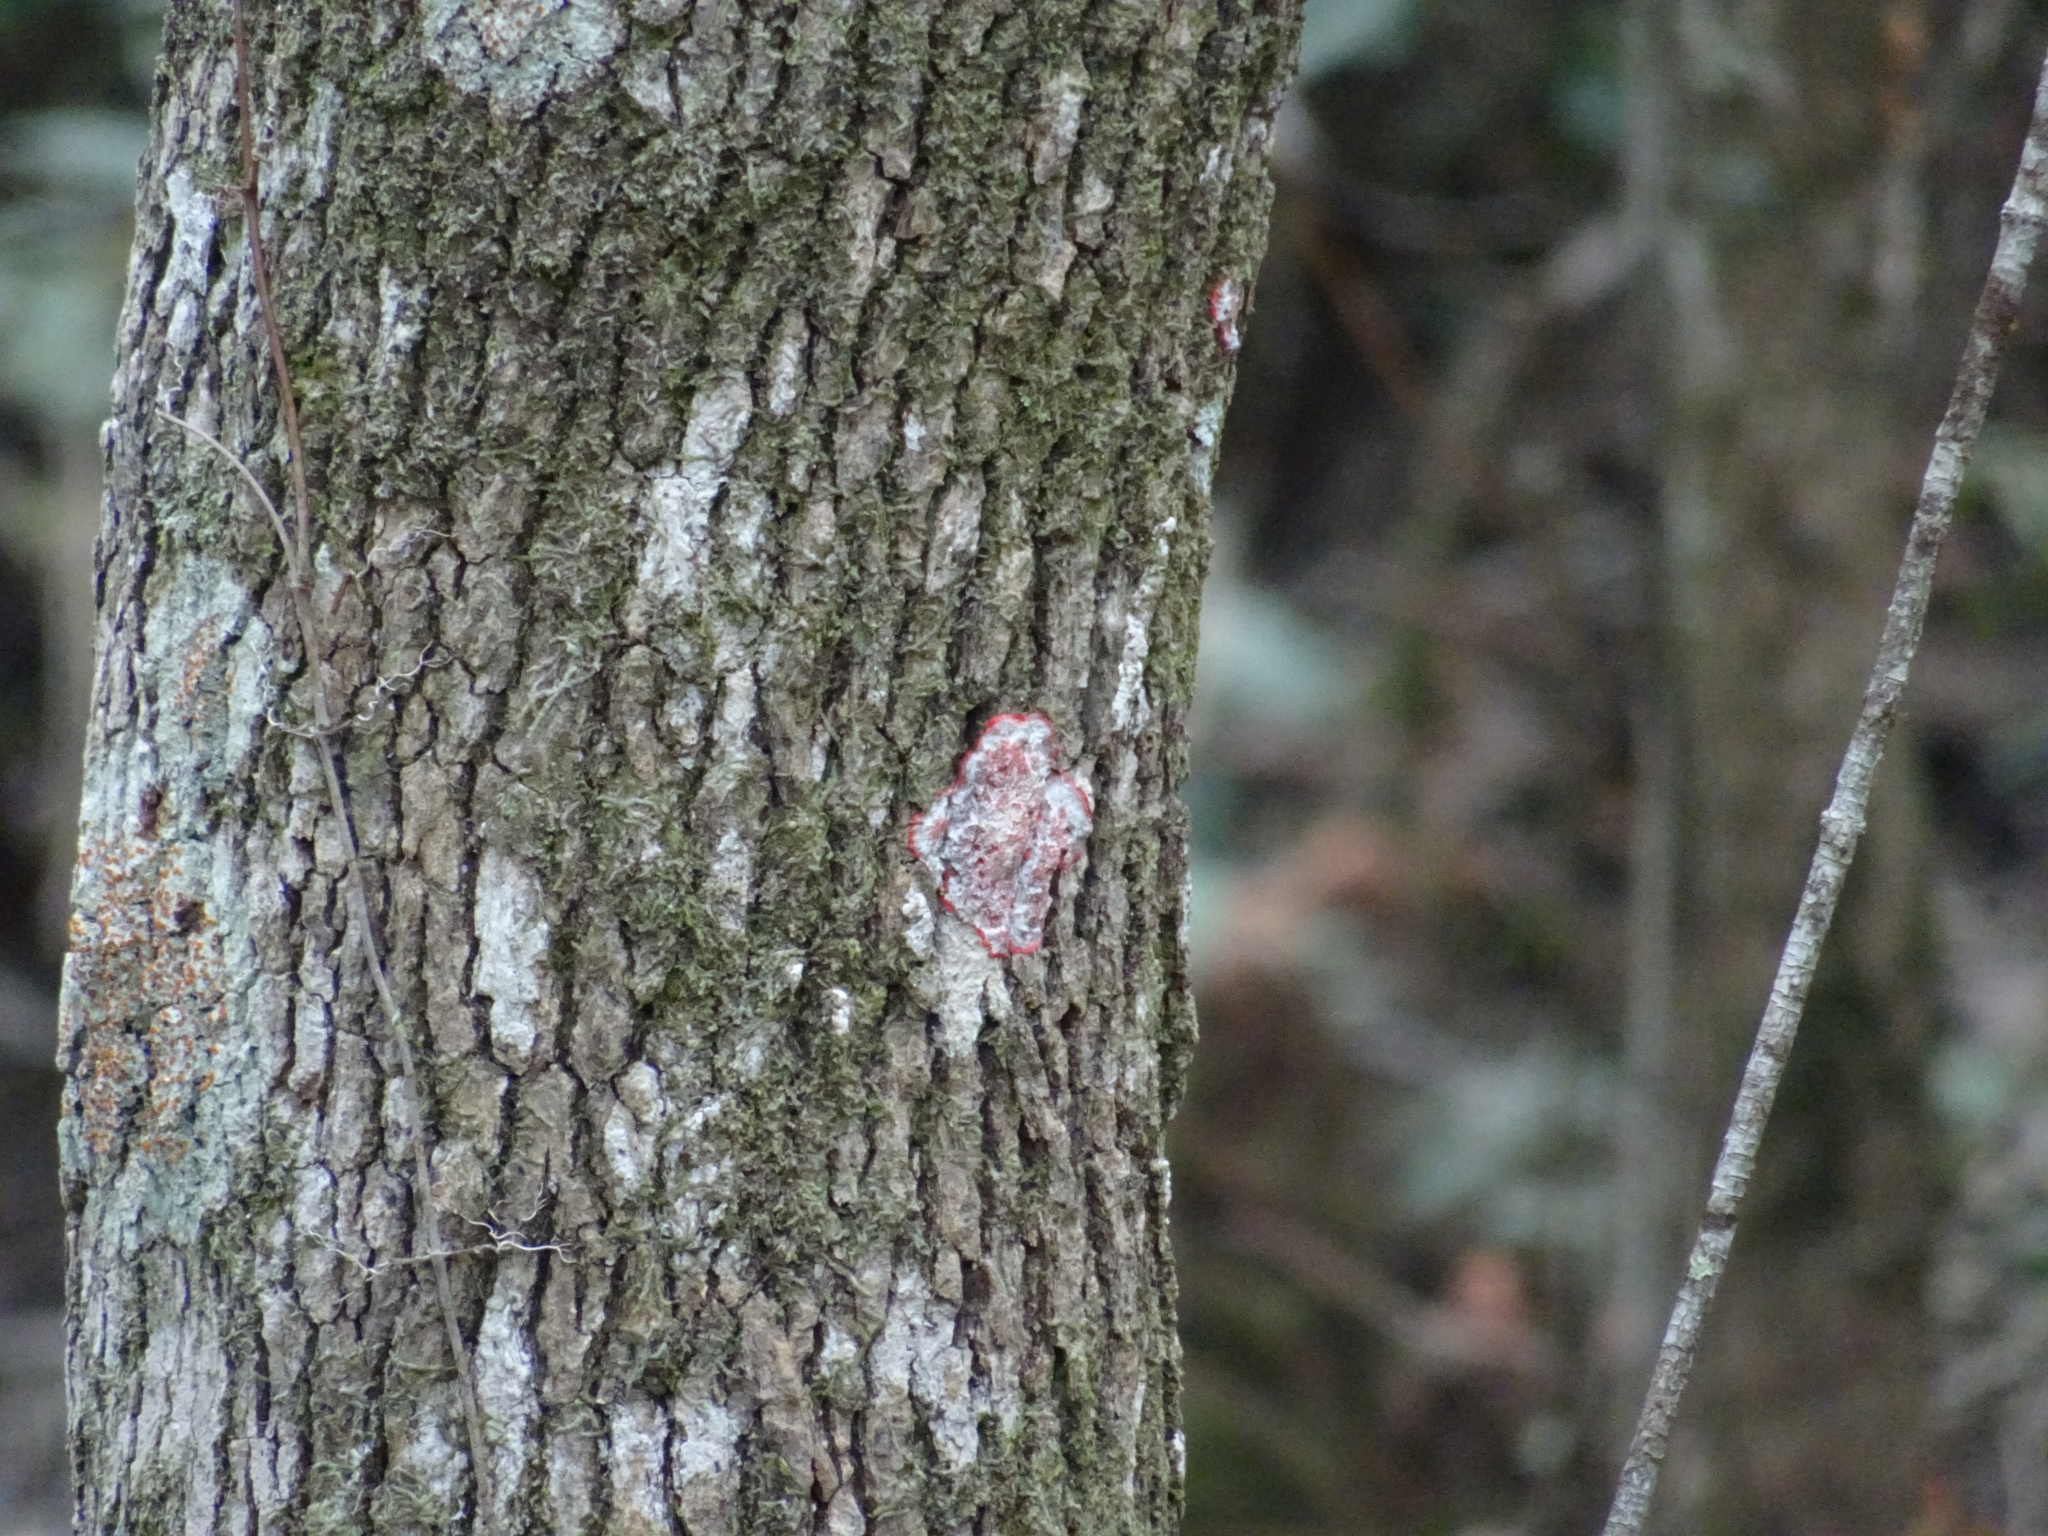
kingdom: Fungi
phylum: Ascomycota
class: Arthoniomycetes
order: Arthoniales
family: Arthoniaceae
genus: Herpothallon
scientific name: Herpothallon rubrocinctum
